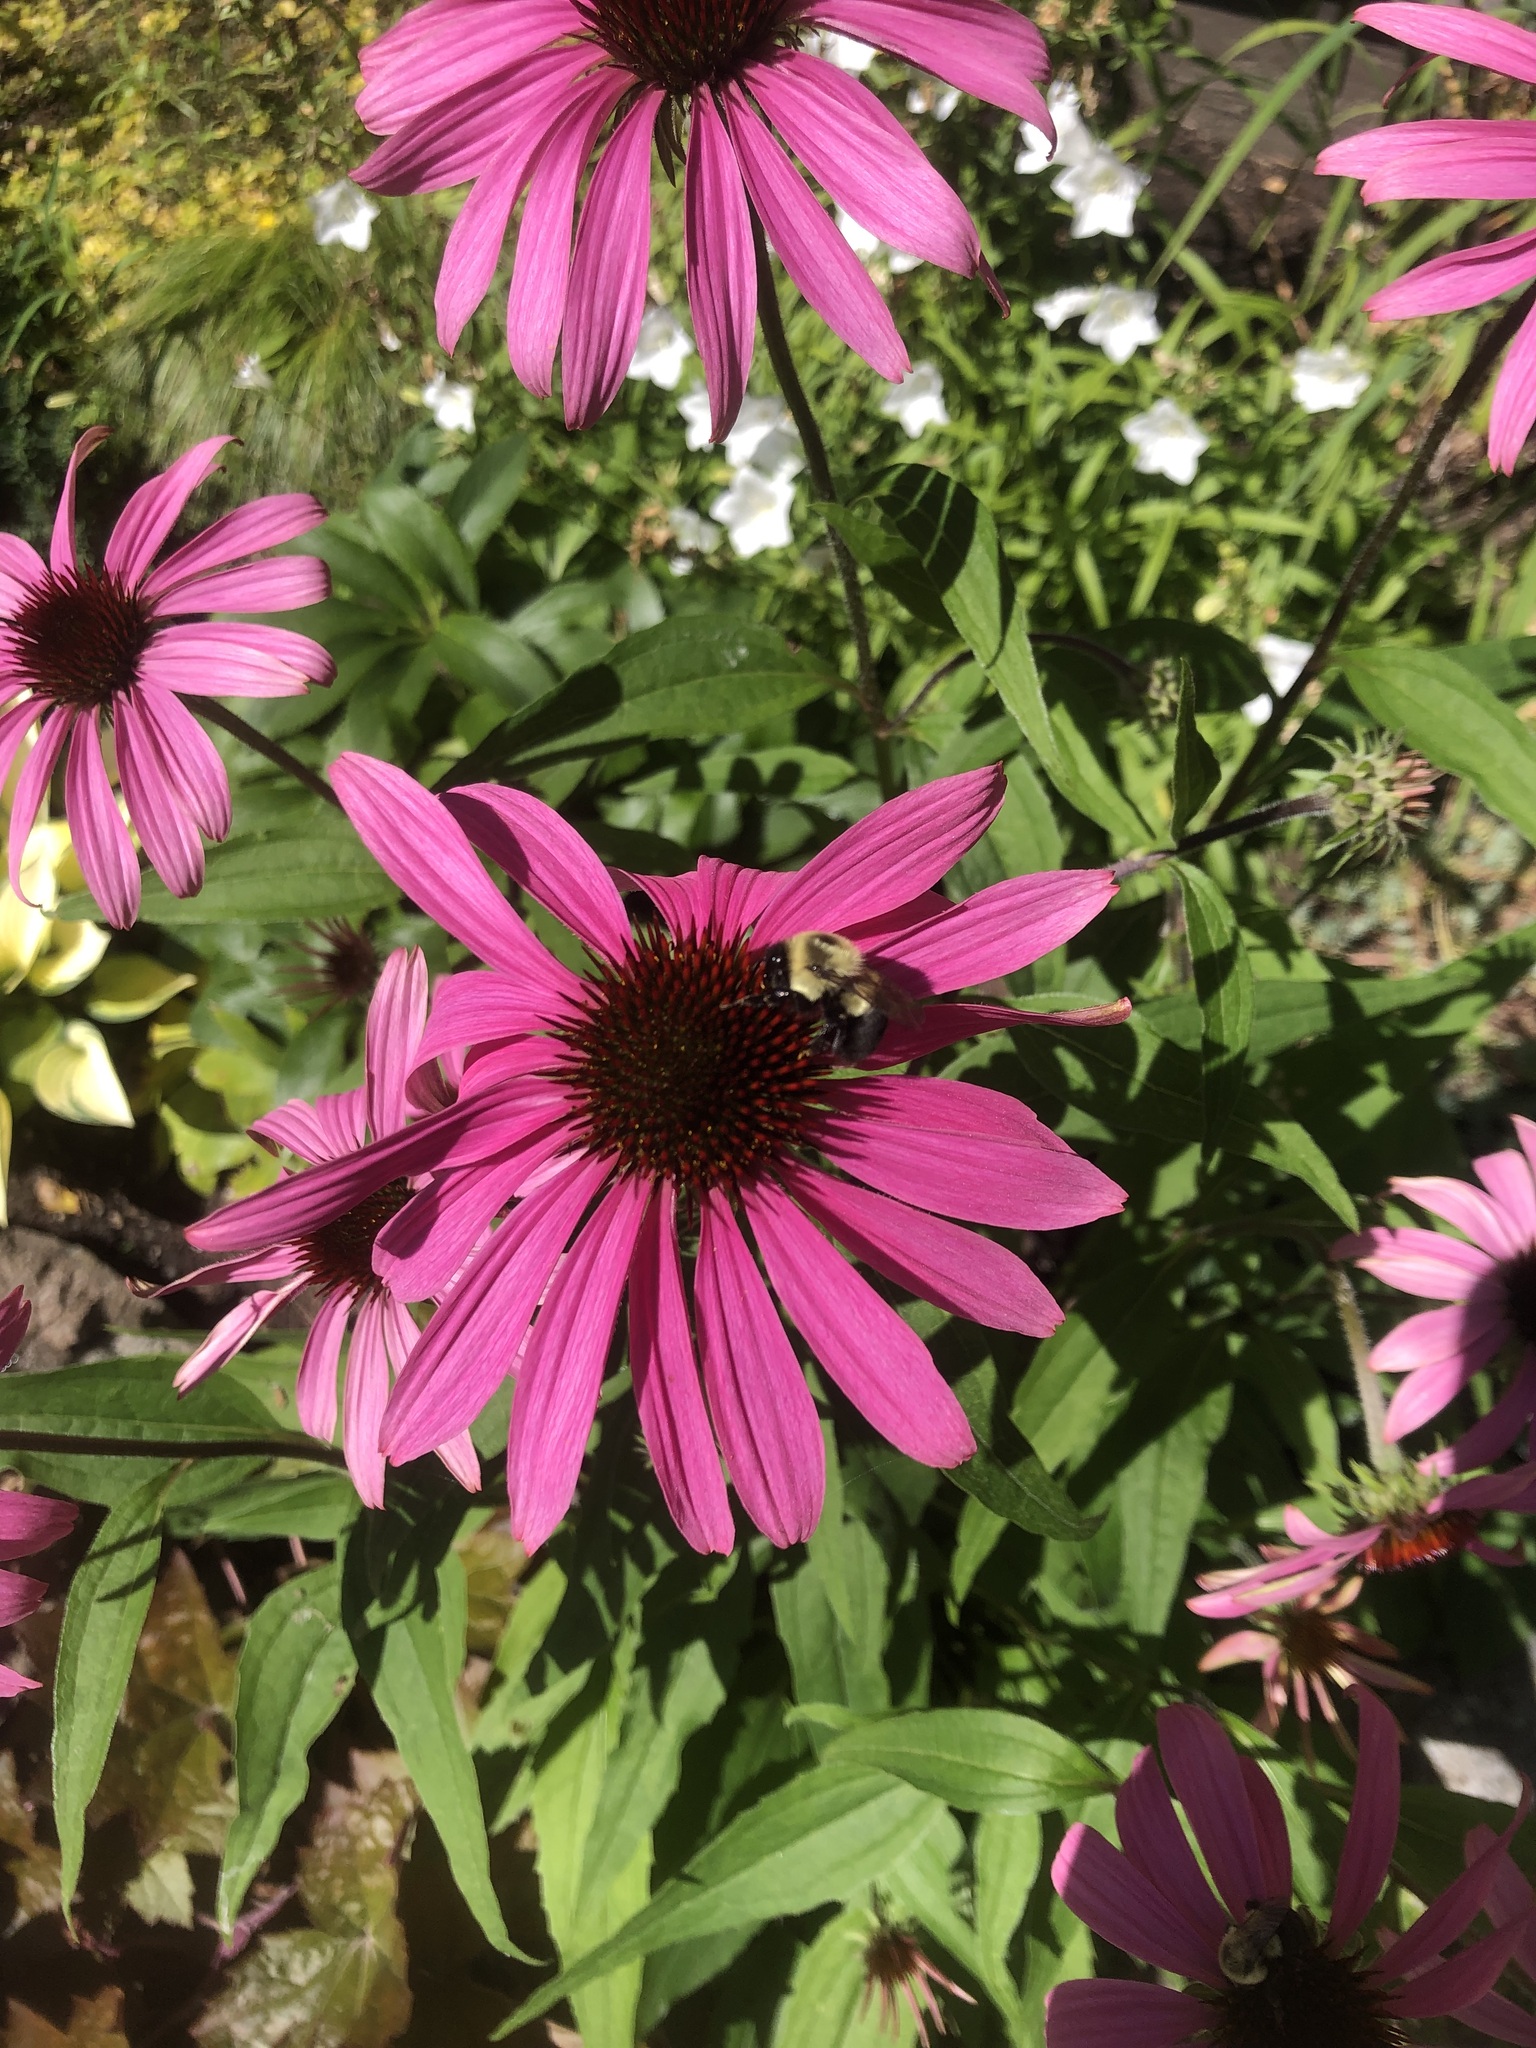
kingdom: Animalia
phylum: Arthropoda
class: Insecta
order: Hymenoptera
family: Apidae
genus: Bombus
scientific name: Bombus impatiens
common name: Common eastern bumble bee
